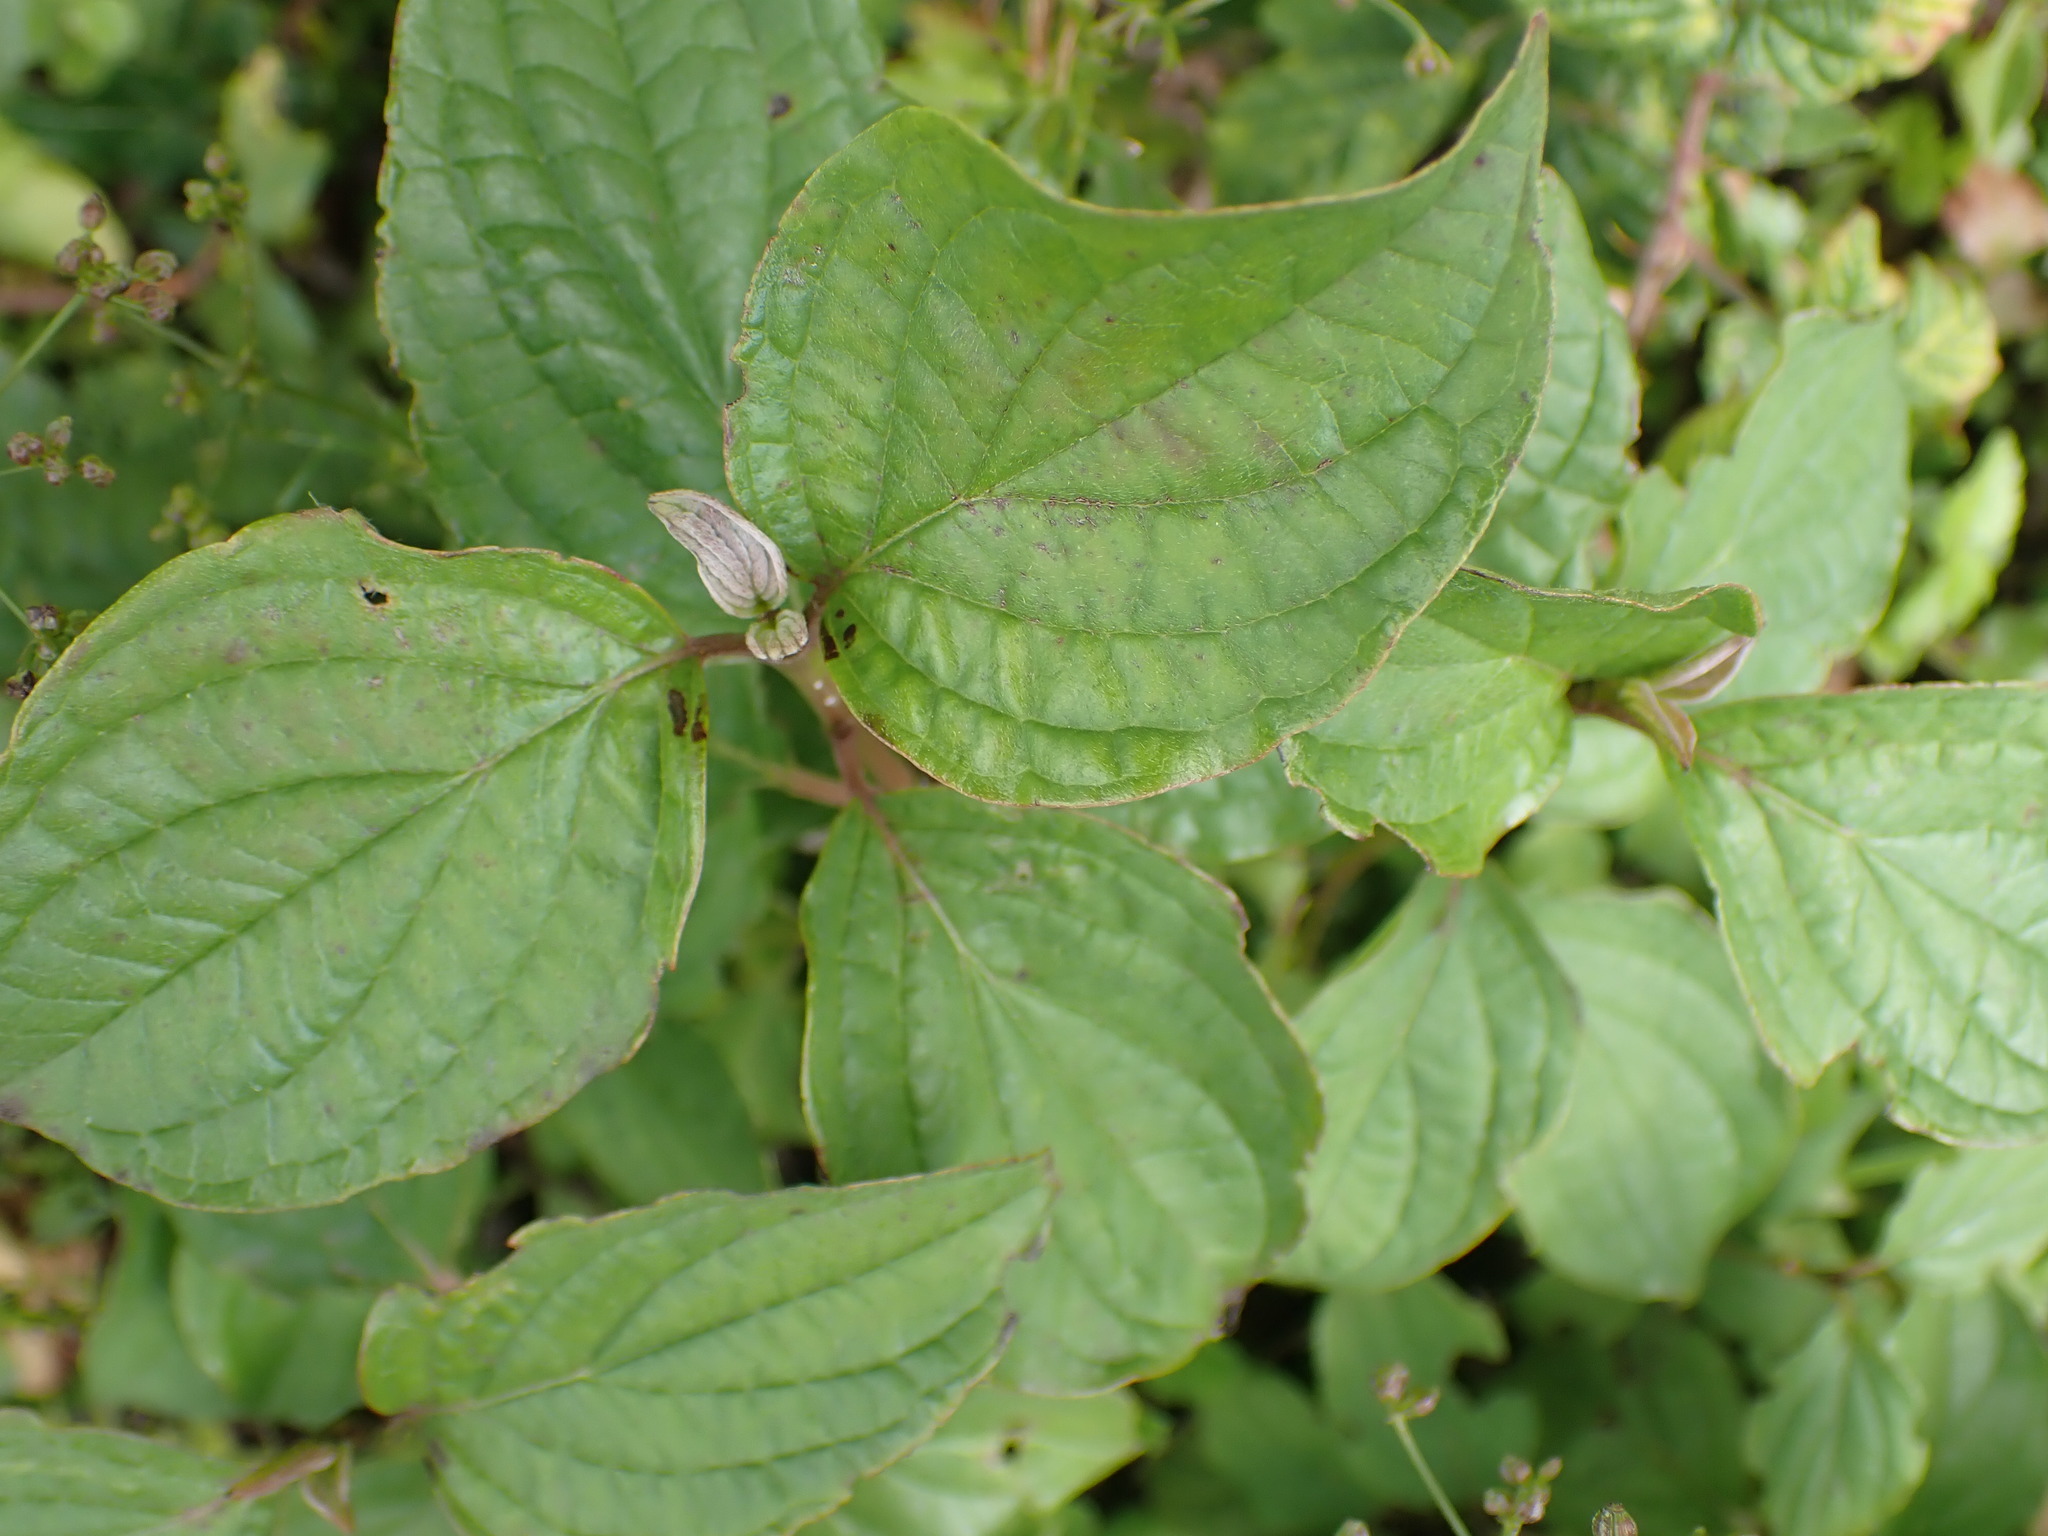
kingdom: Plantae
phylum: Tracheophyta
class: Magnoliopsida
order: Cornales
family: Cornaceae
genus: Cornus
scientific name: Cornus sanguinea
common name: Dogwood
